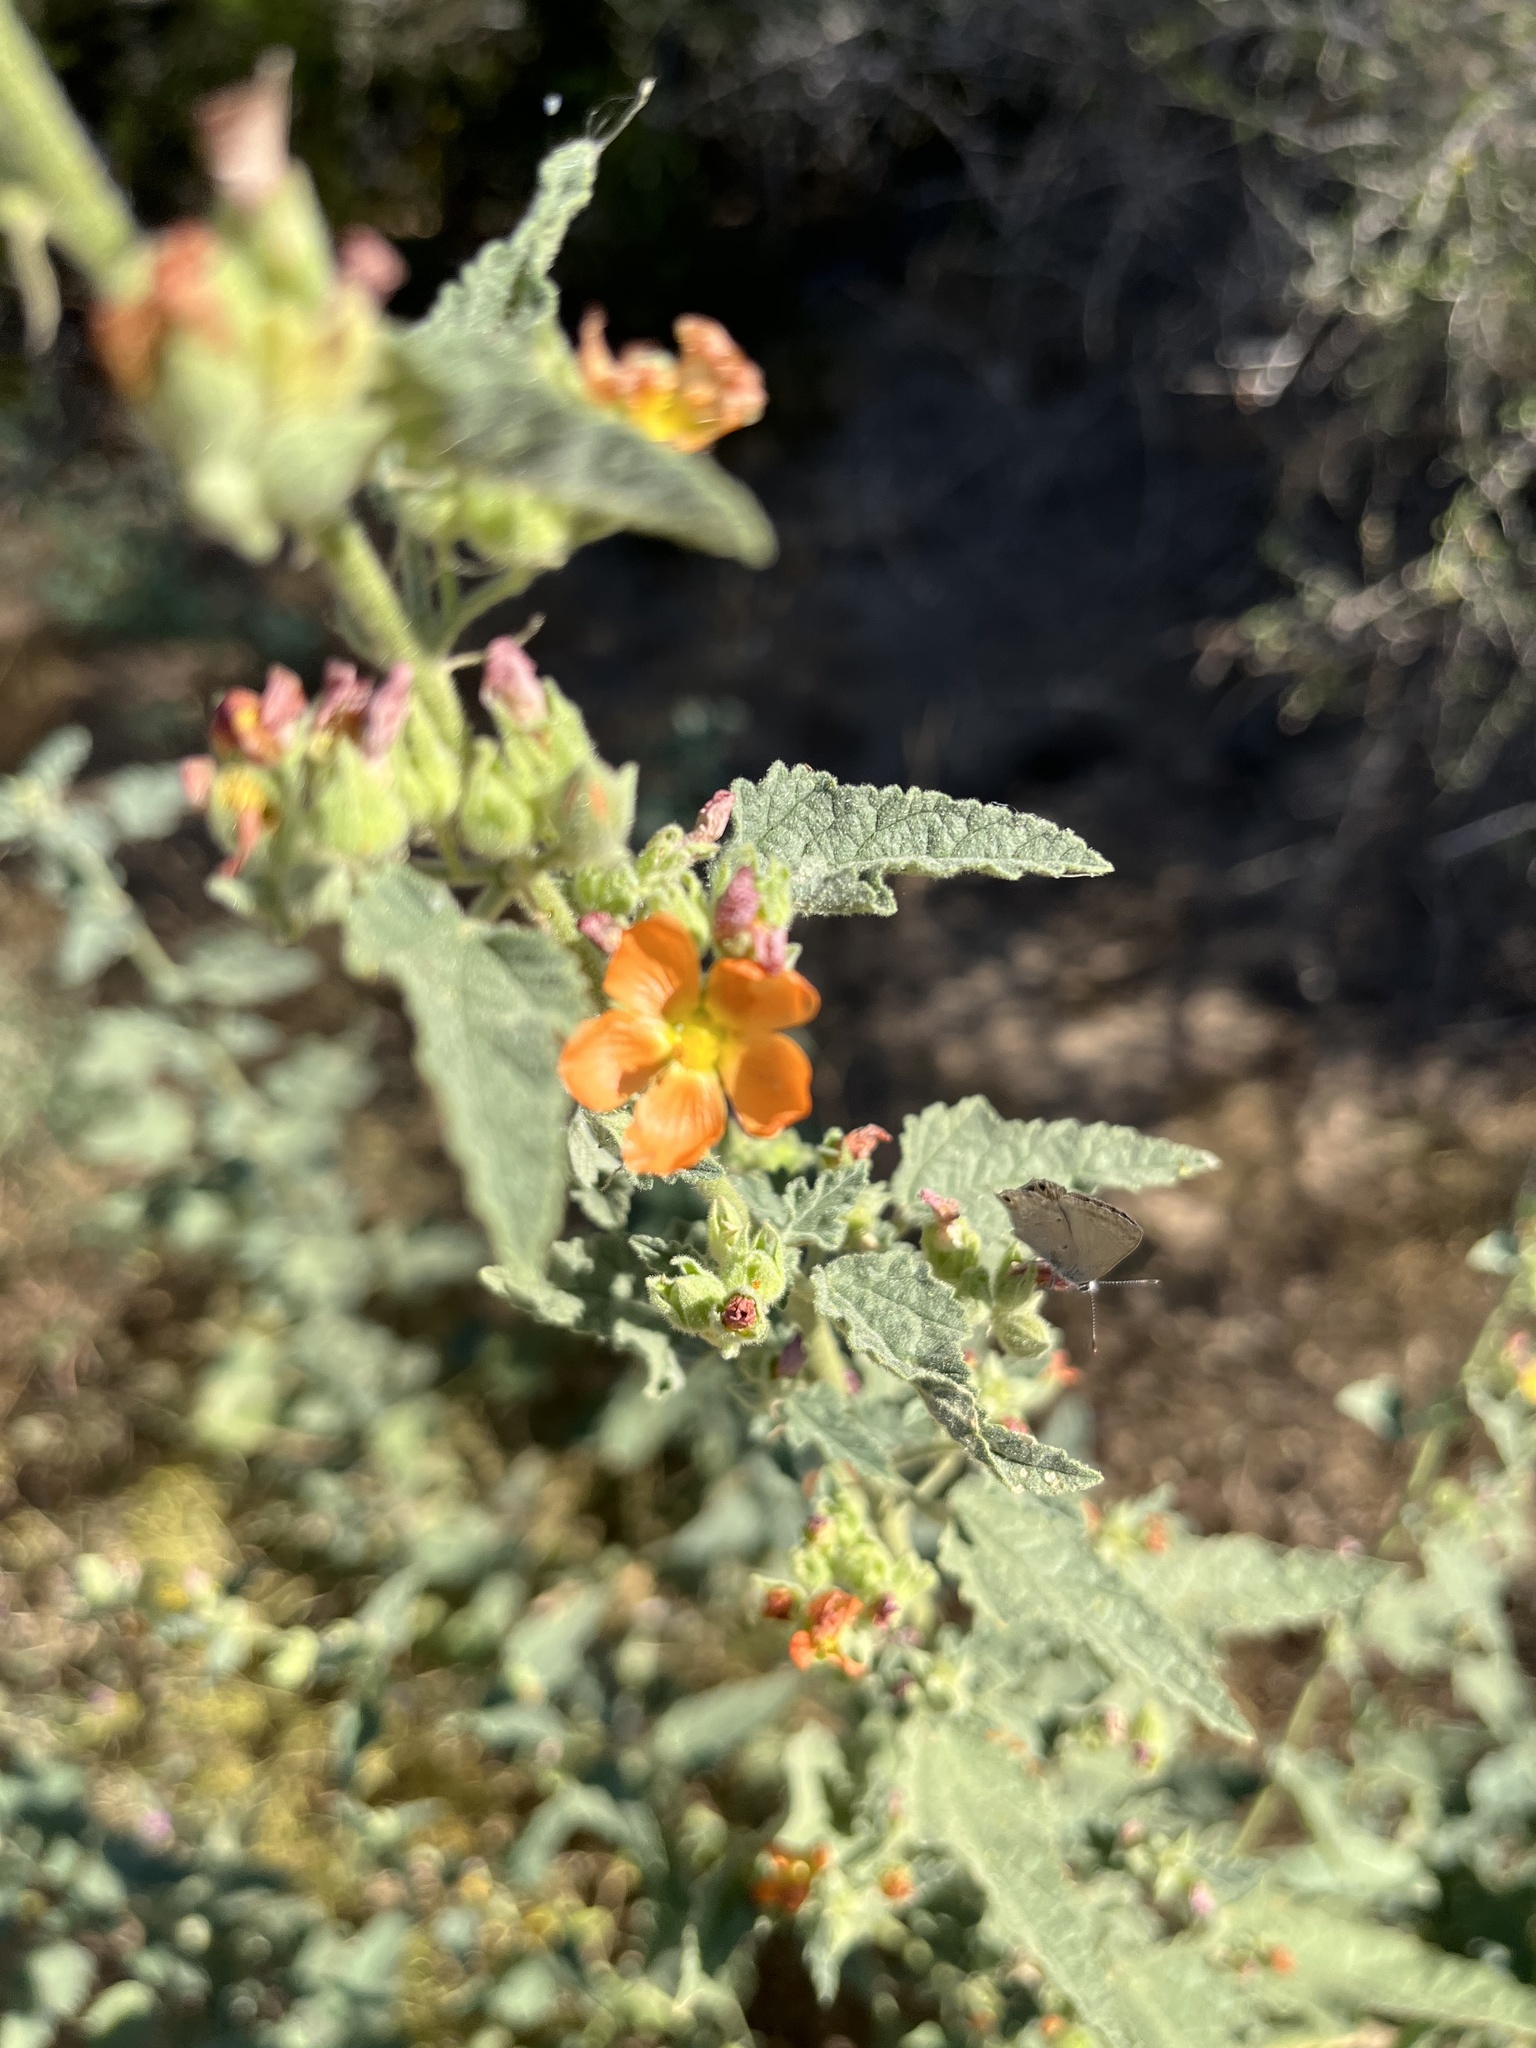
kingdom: Plantae
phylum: Tracheophyta
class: Magnoliopsida
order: Malvales
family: Malvaceae
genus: Sphaeralcea
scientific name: Sphaeralcea ambigua
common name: Apricot globe-mallow
